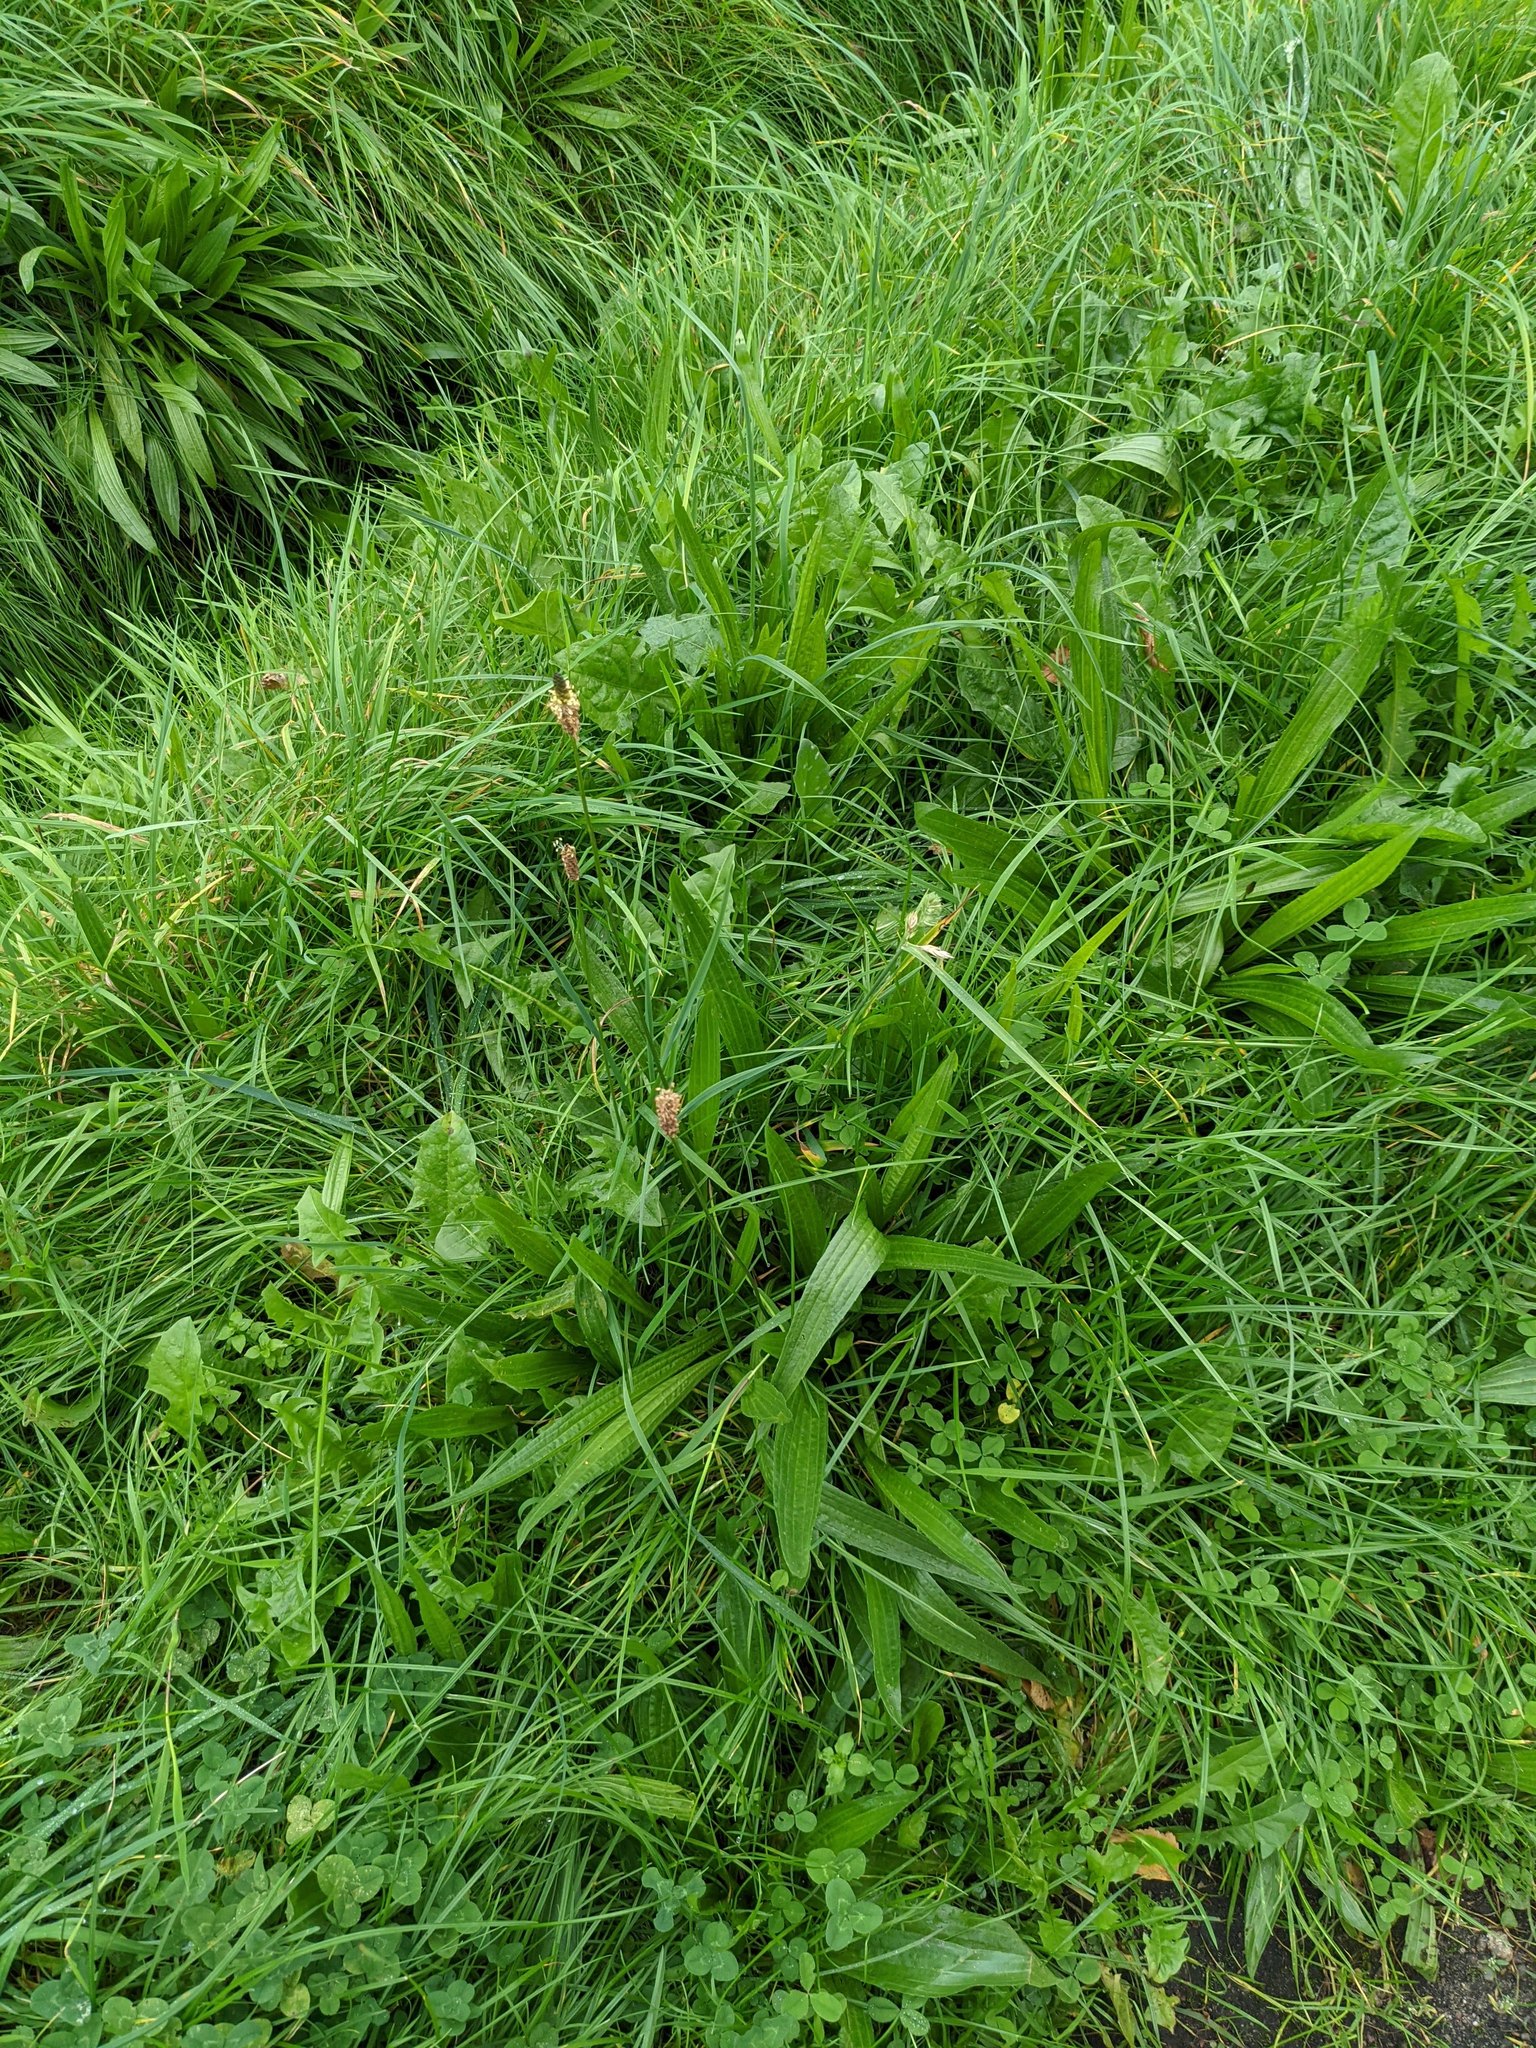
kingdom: Plantae
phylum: Tracheophyta
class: Magnoliopsida
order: Lamiales
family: Plantaginaceae
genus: Plantago
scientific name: Plantago lanceolata
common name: Ribwort plantain
